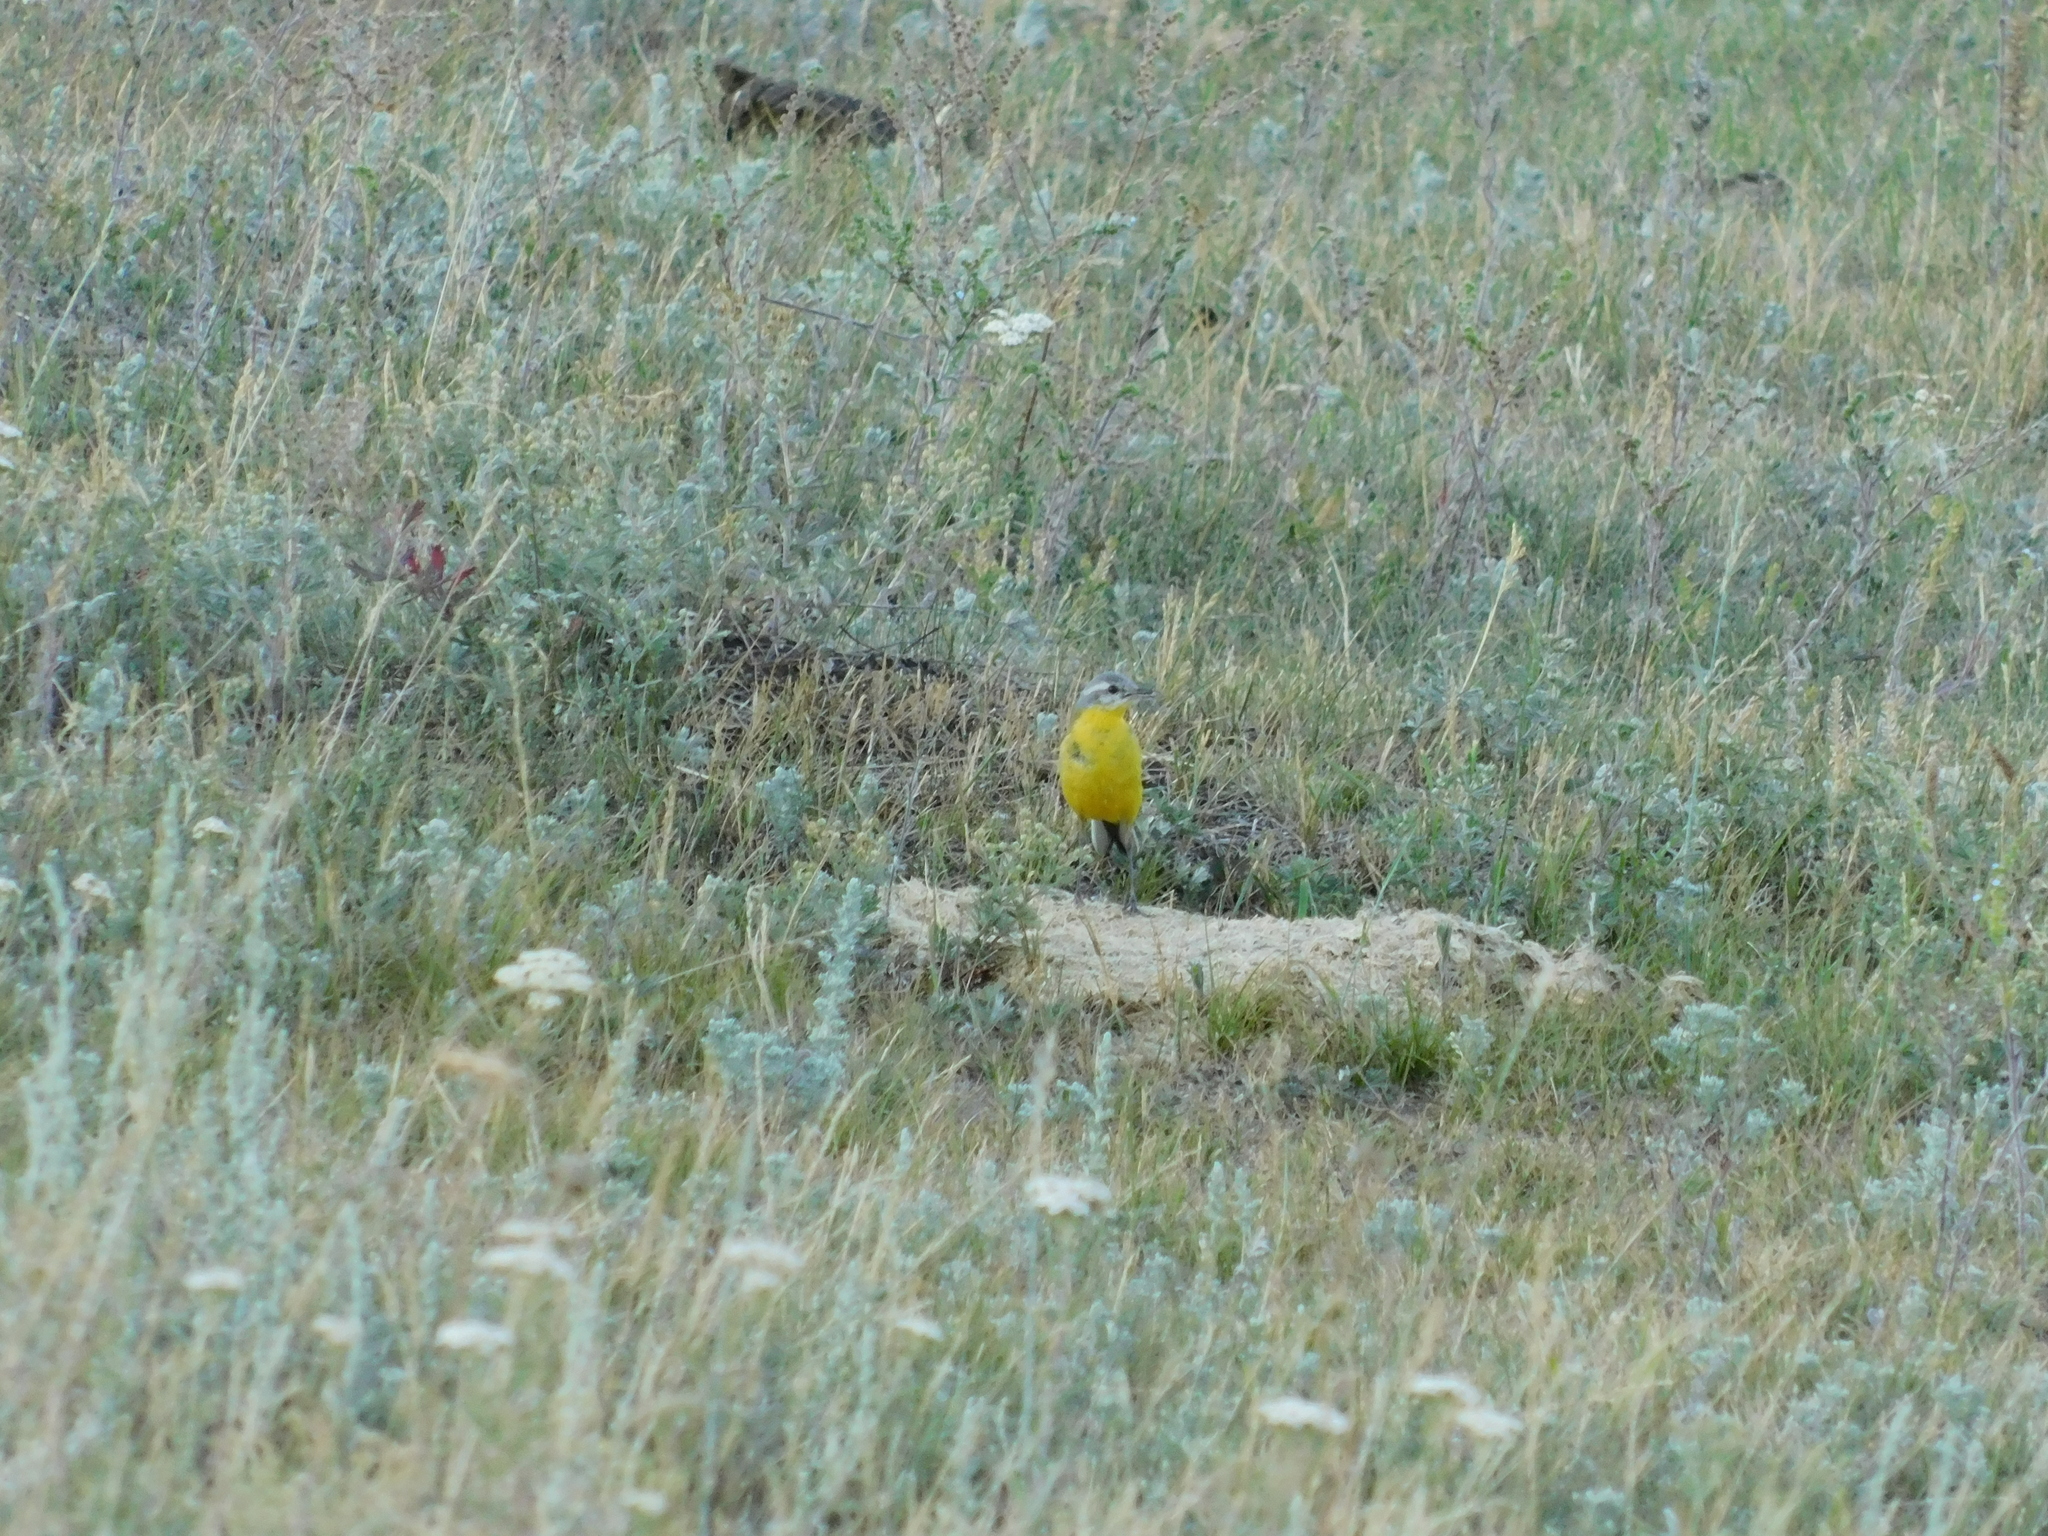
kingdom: Animalia
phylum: Chordata
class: Aves
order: Passeriformes
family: Motacillidae
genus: Motacilla
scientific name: Motacilla flava
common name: Western yellow wagtail
